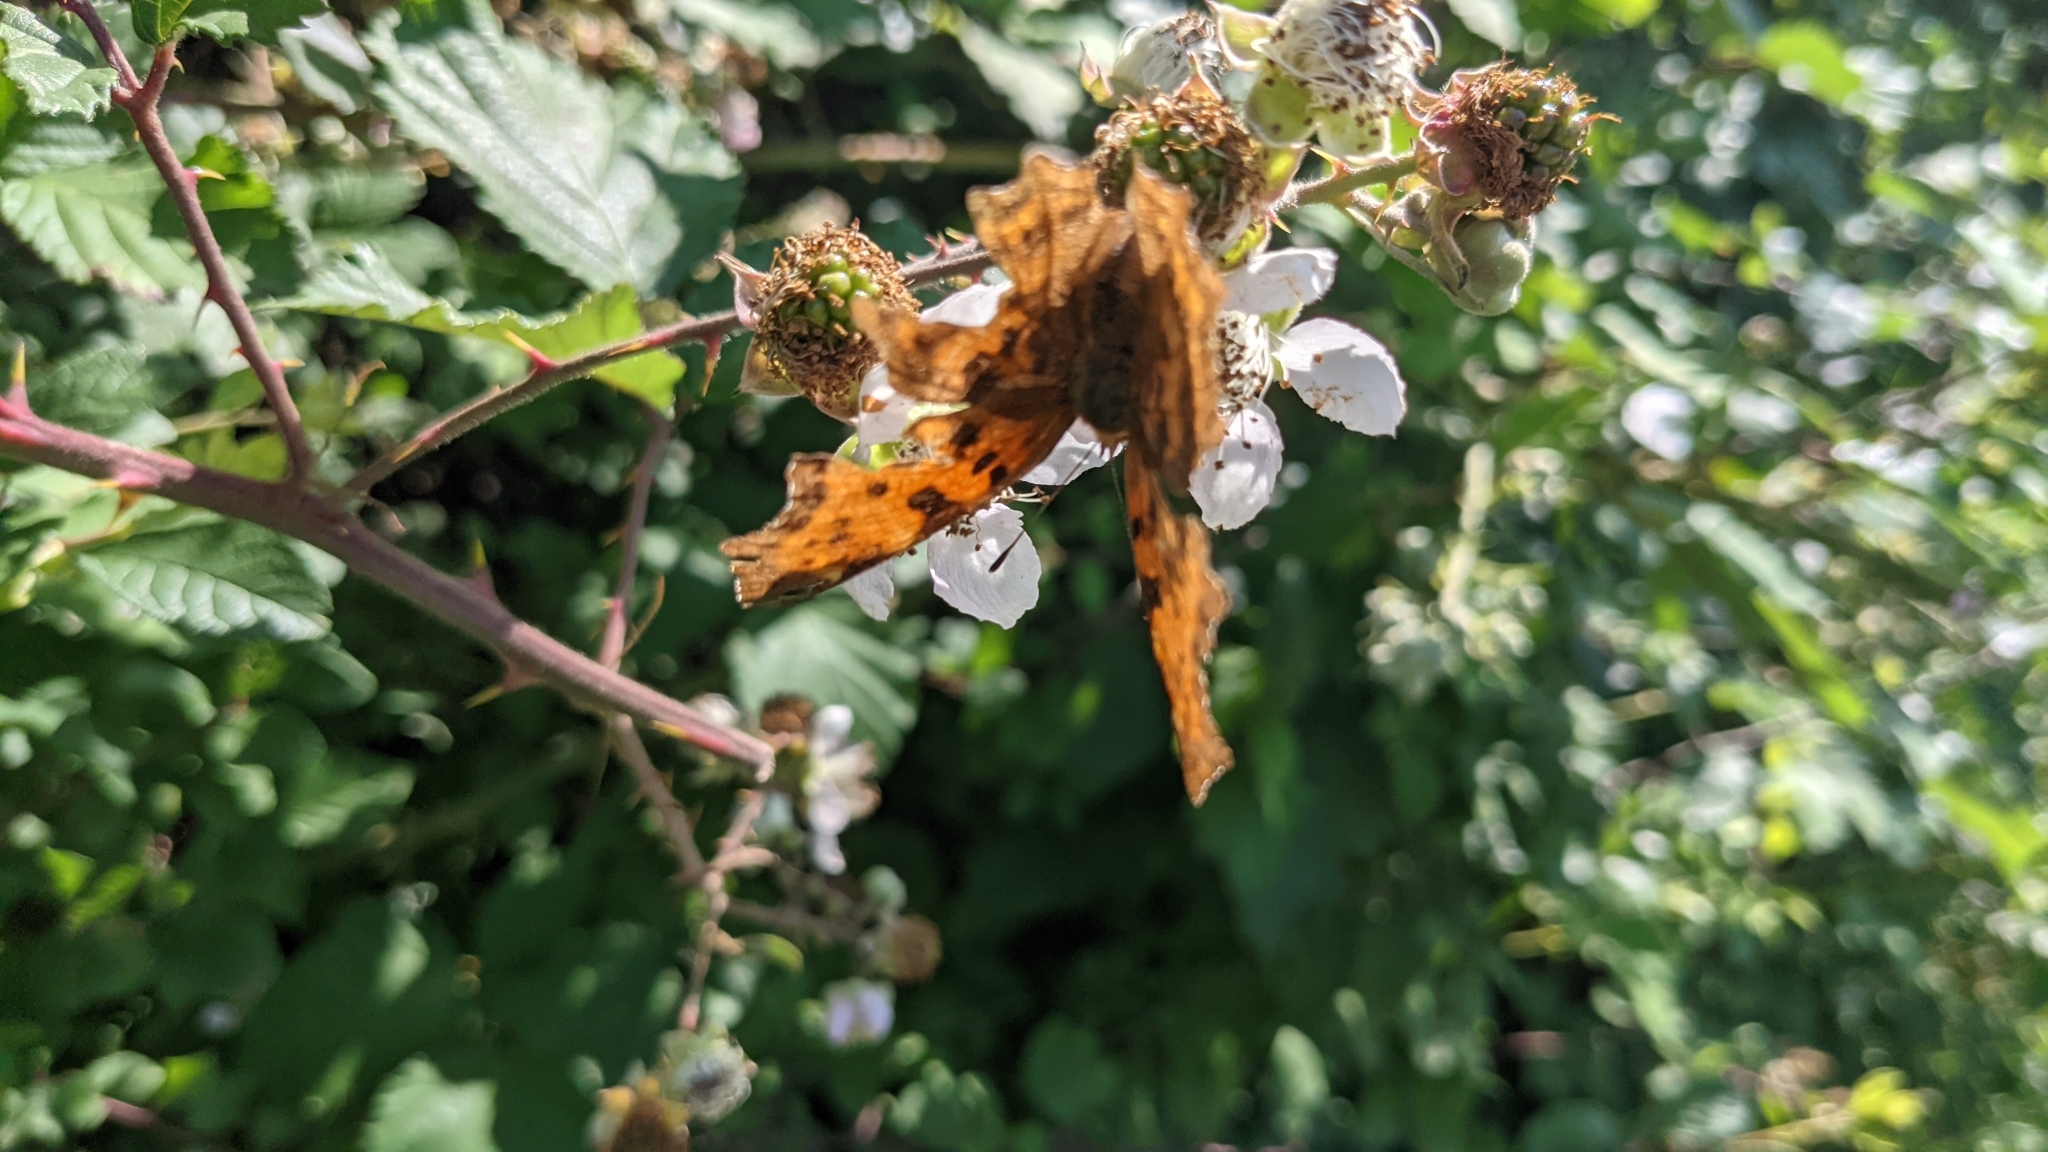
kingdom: Animalia
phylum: Arthropoda
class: Insecta
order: Lepidoptera
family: Nymphalidae
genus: Polygonia
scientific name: Polygonia c-album
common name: Comma
